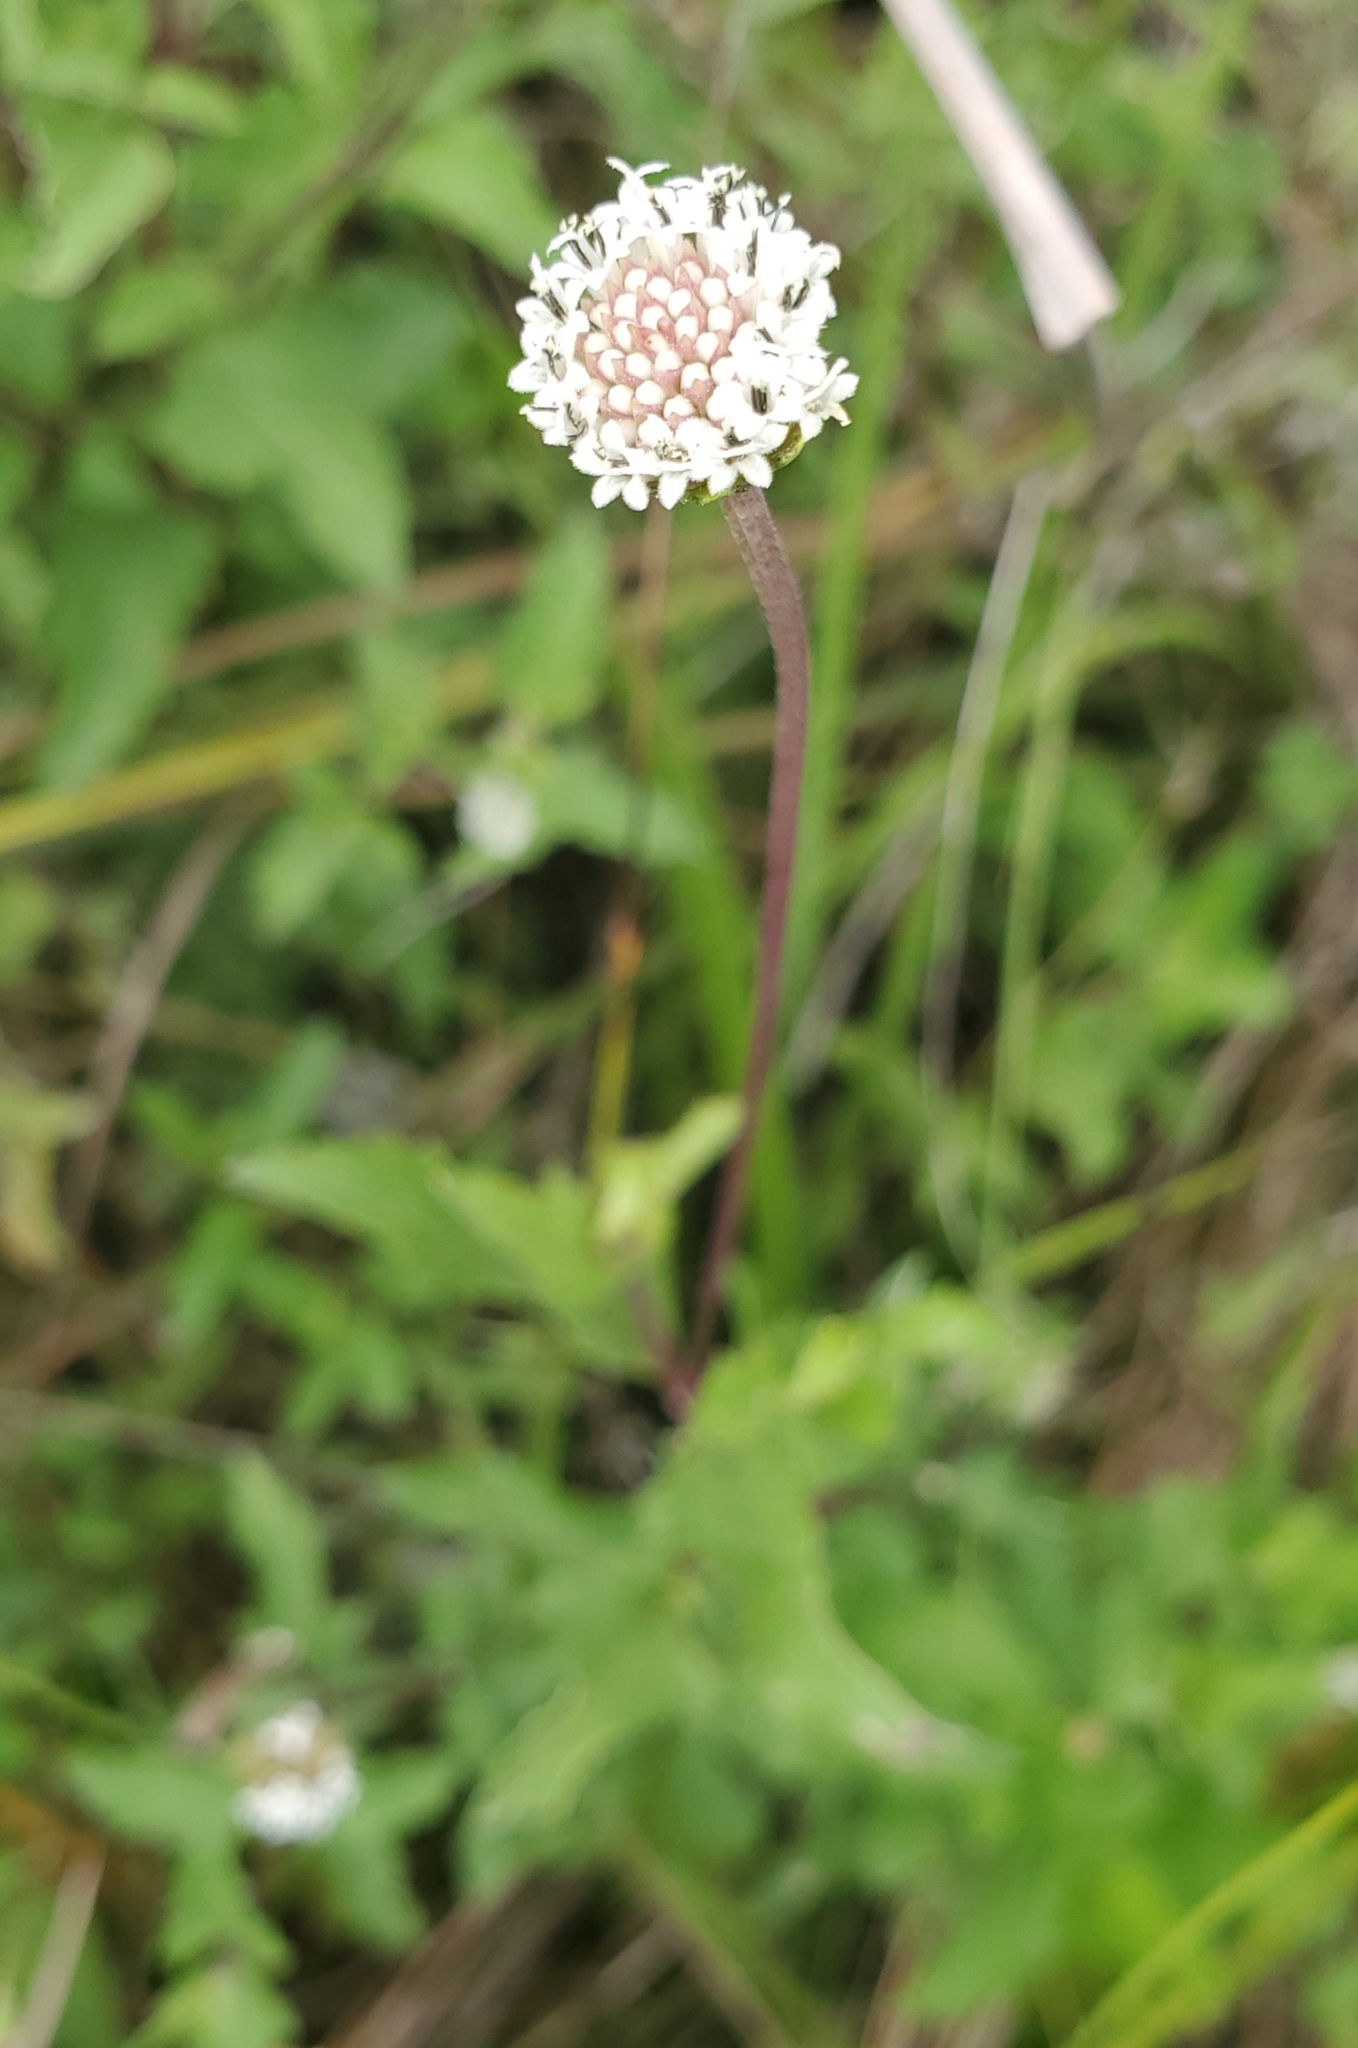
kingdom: Plantae
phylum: Tracheophyta
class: Magnoliopsida
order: Asterales
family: Asteraceae
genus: Melanthera
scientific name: Melanthera nivea
